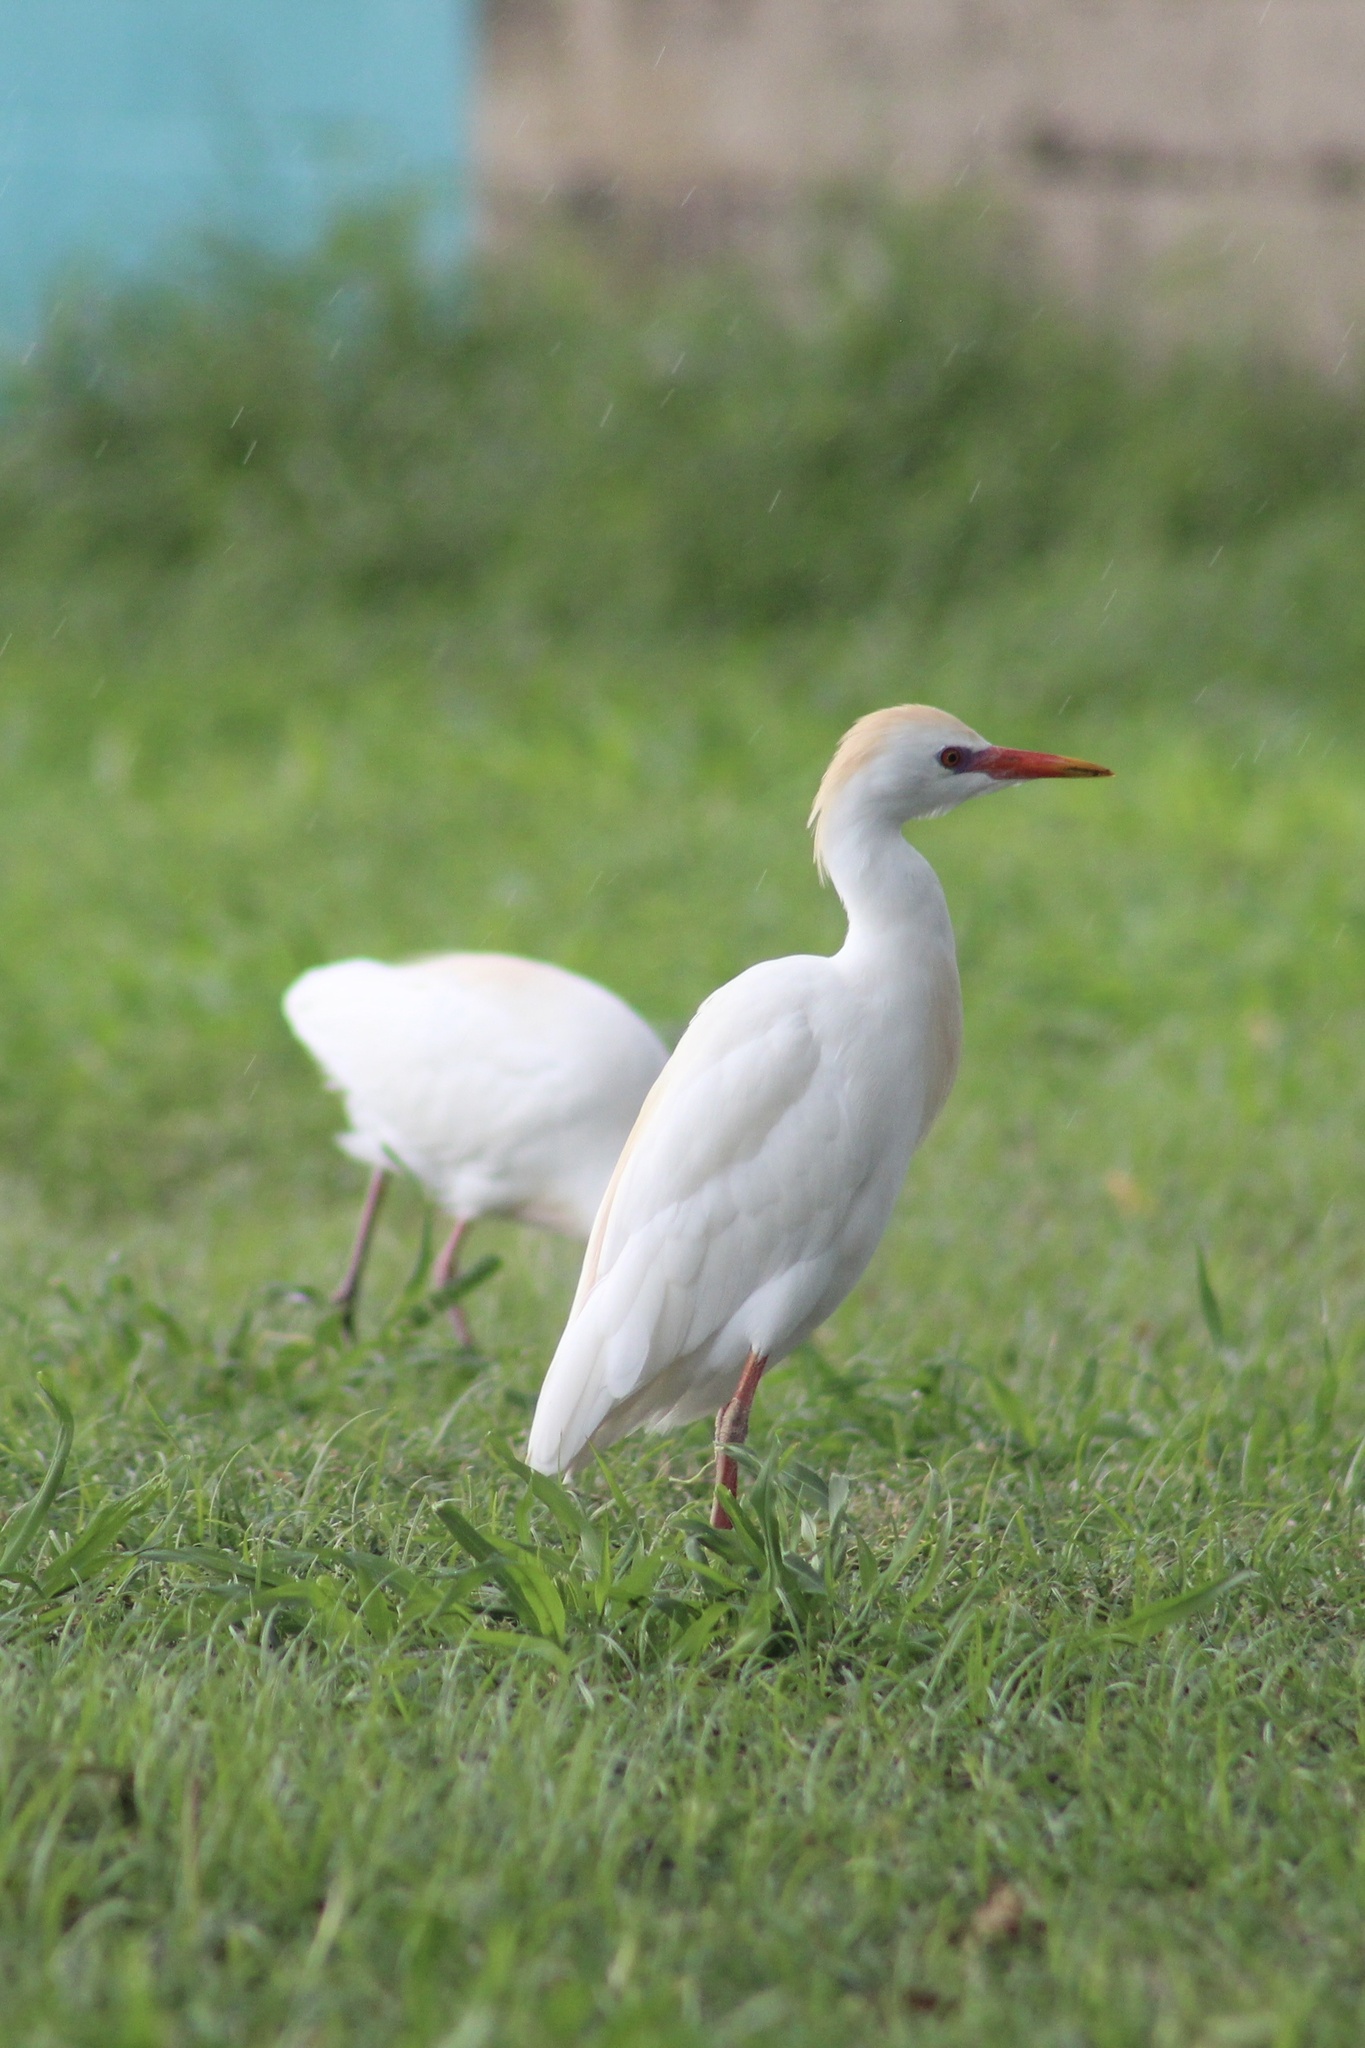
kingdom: Animalia
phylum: Chordata
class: Aves
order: Pelecaniformes
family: Ardeidae
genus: Bubulcus
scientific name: Bubulcus ibis
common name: Cattle egret
